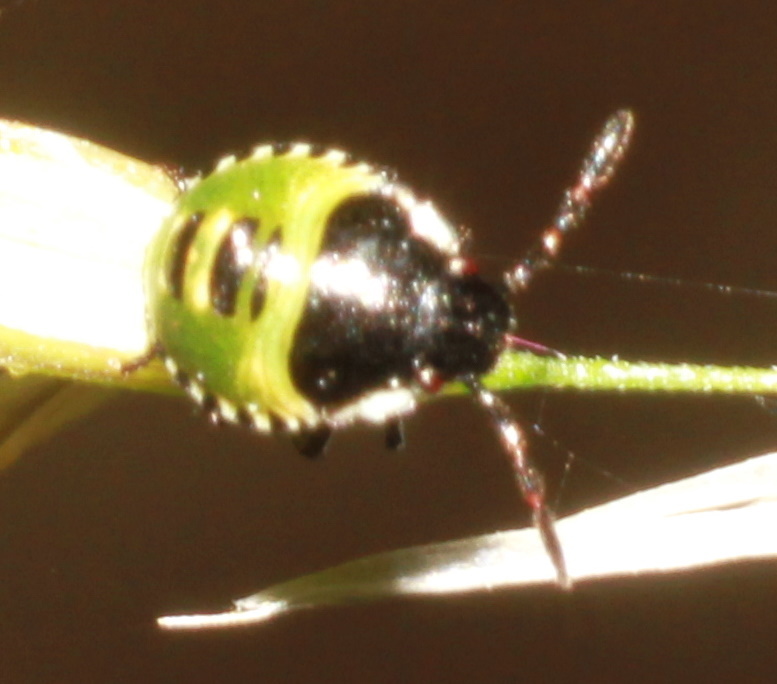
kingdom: Animalia
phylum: Arthropoda
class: Insecta
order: Hemiptera
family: Pentatomidae
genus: Palomena
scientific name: Palomena prasina
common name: Green shieldbug
